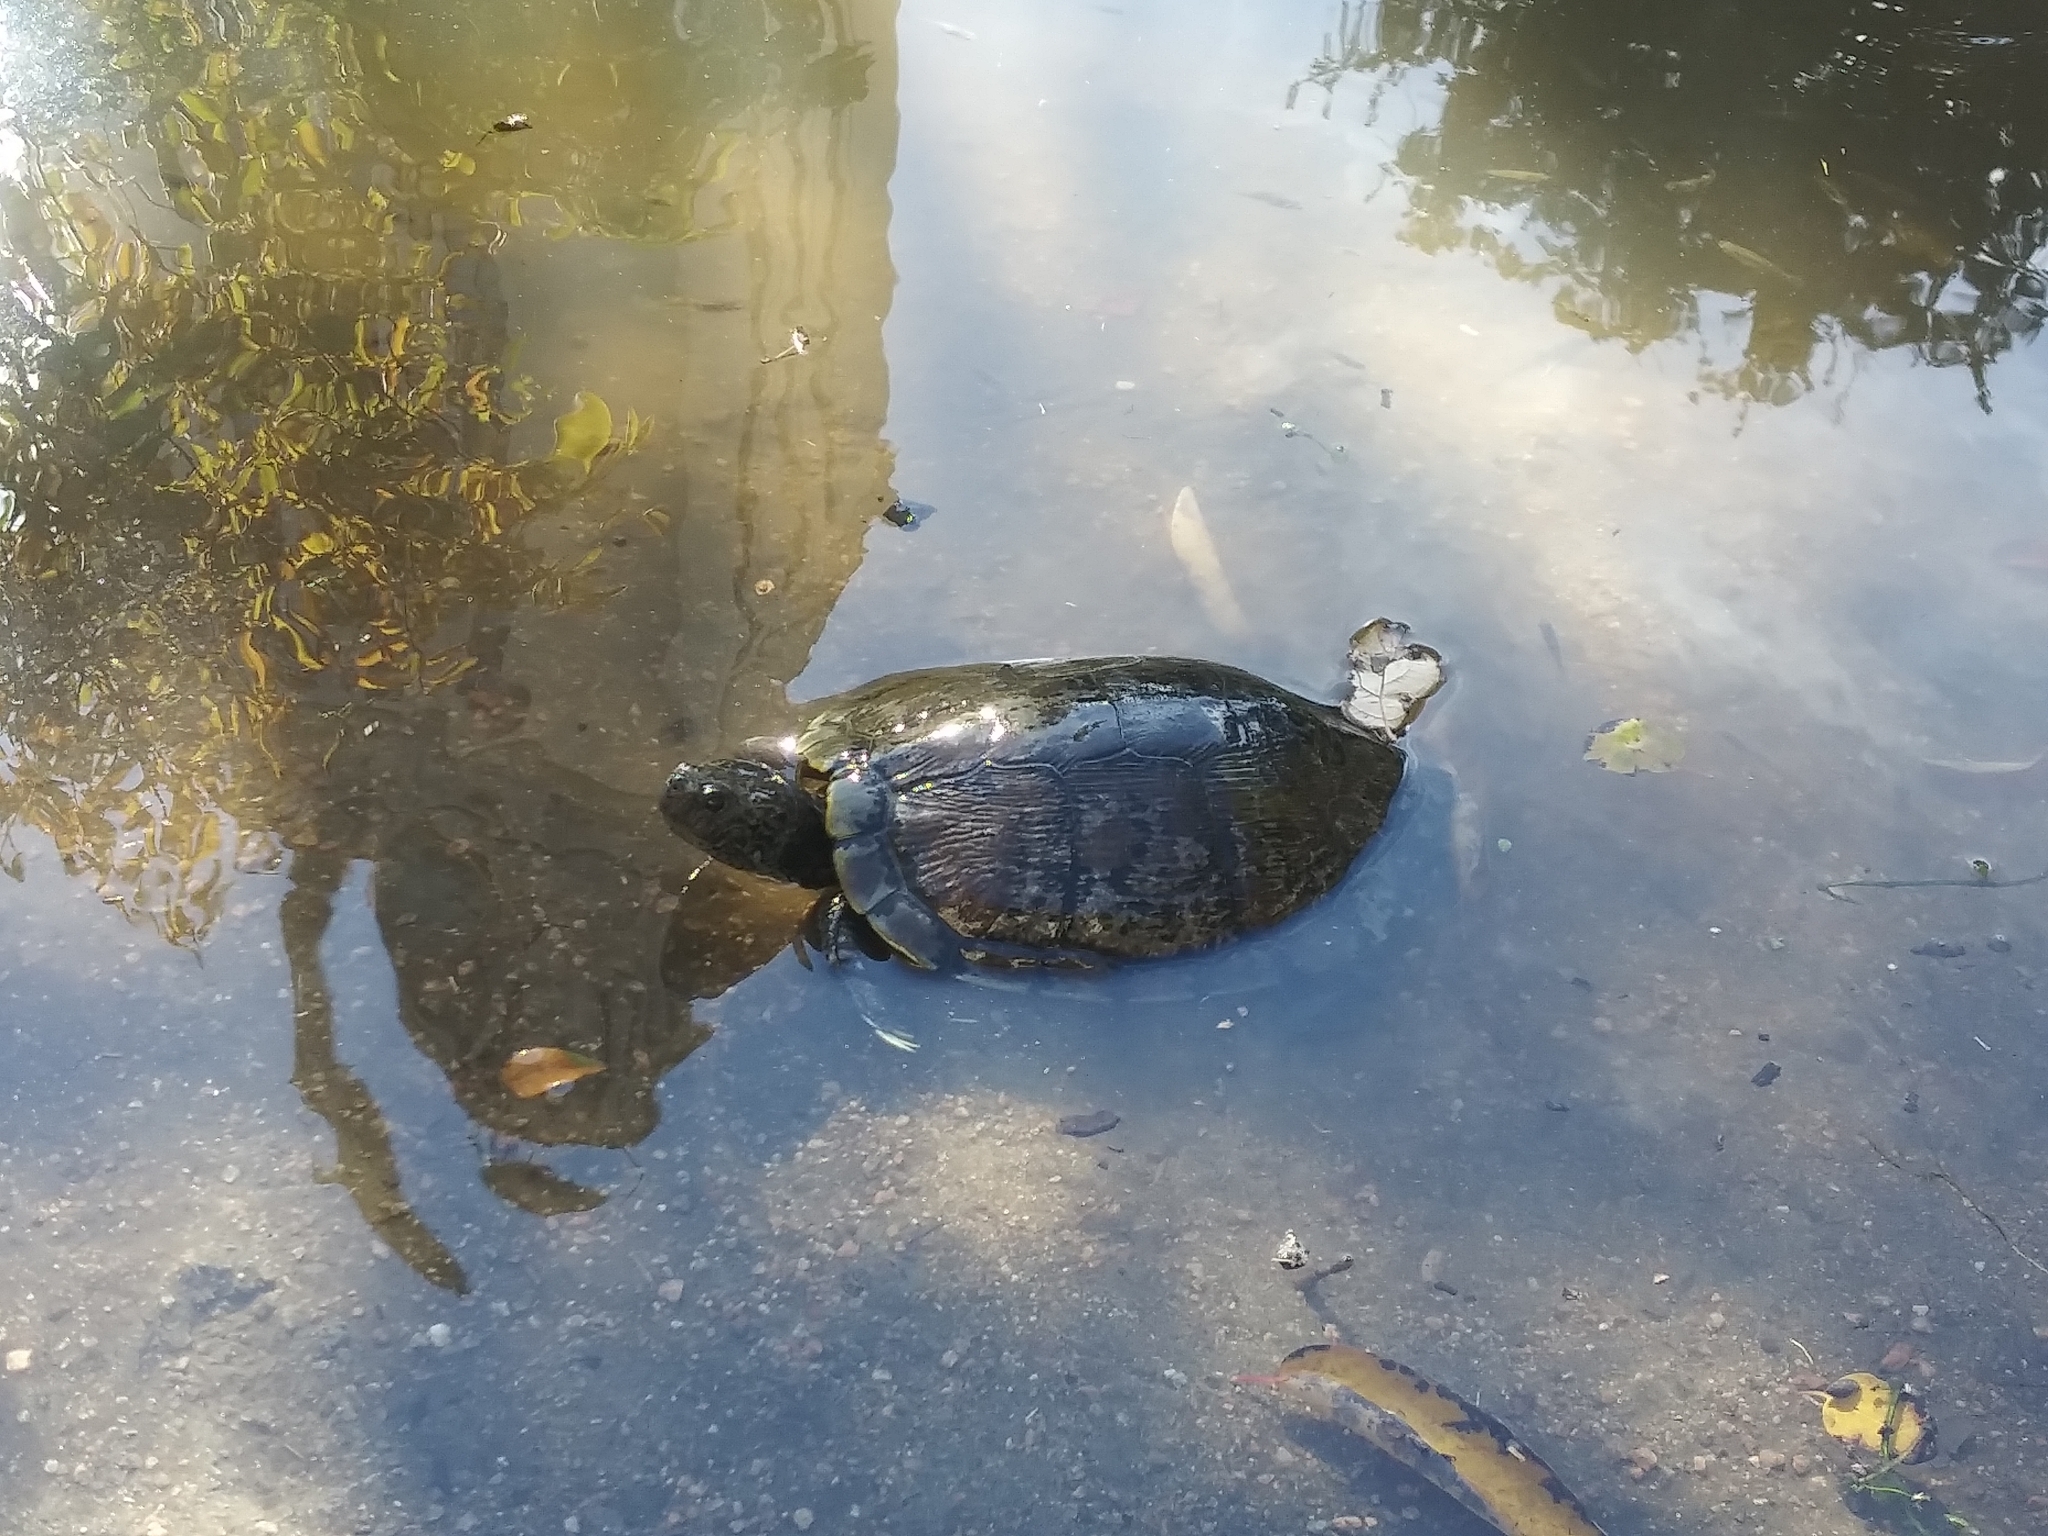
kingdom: Animalia
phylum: Chordata
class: Testudines
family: Emydidae
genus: Trachemys
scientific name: Trachemys scripta
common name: Slider
